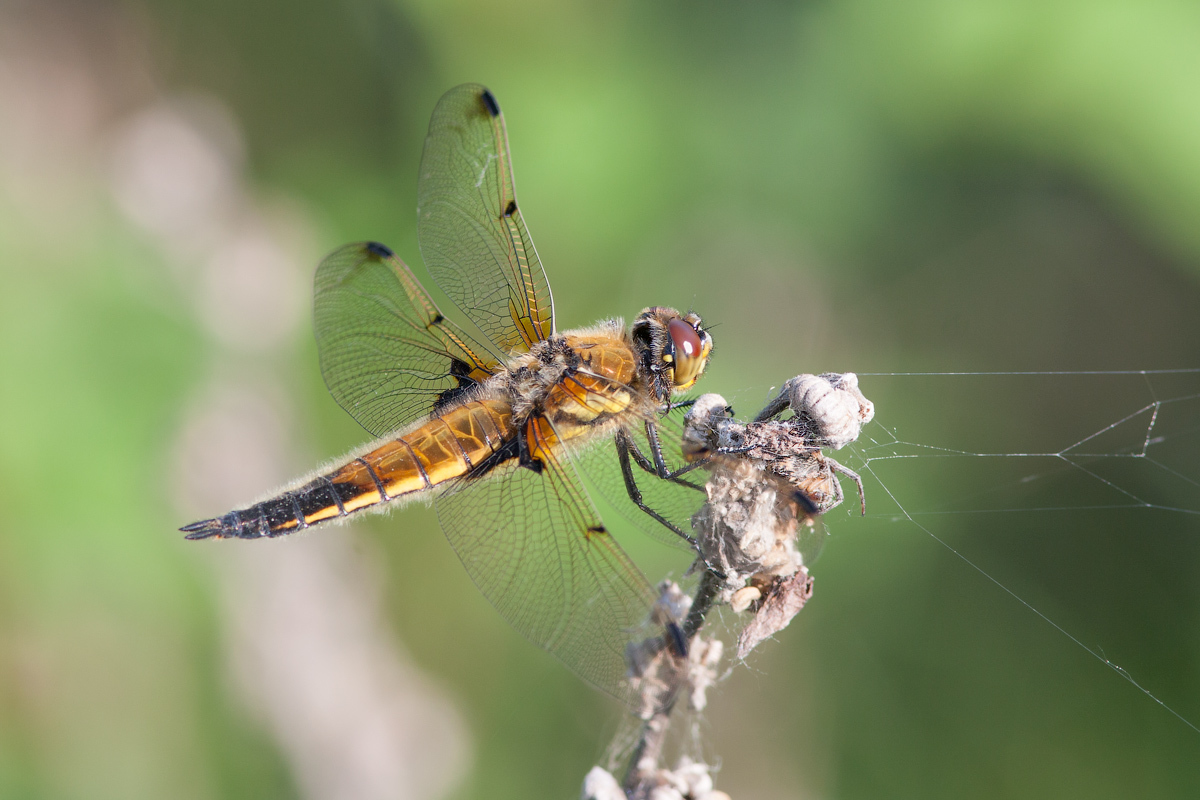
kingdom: Animalia
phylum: Arthropoda
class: Insecta
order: Odonata
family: Libellulidae
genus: Libellula
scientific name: Libellula quadrimaculata
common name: Four-spotted chaser
